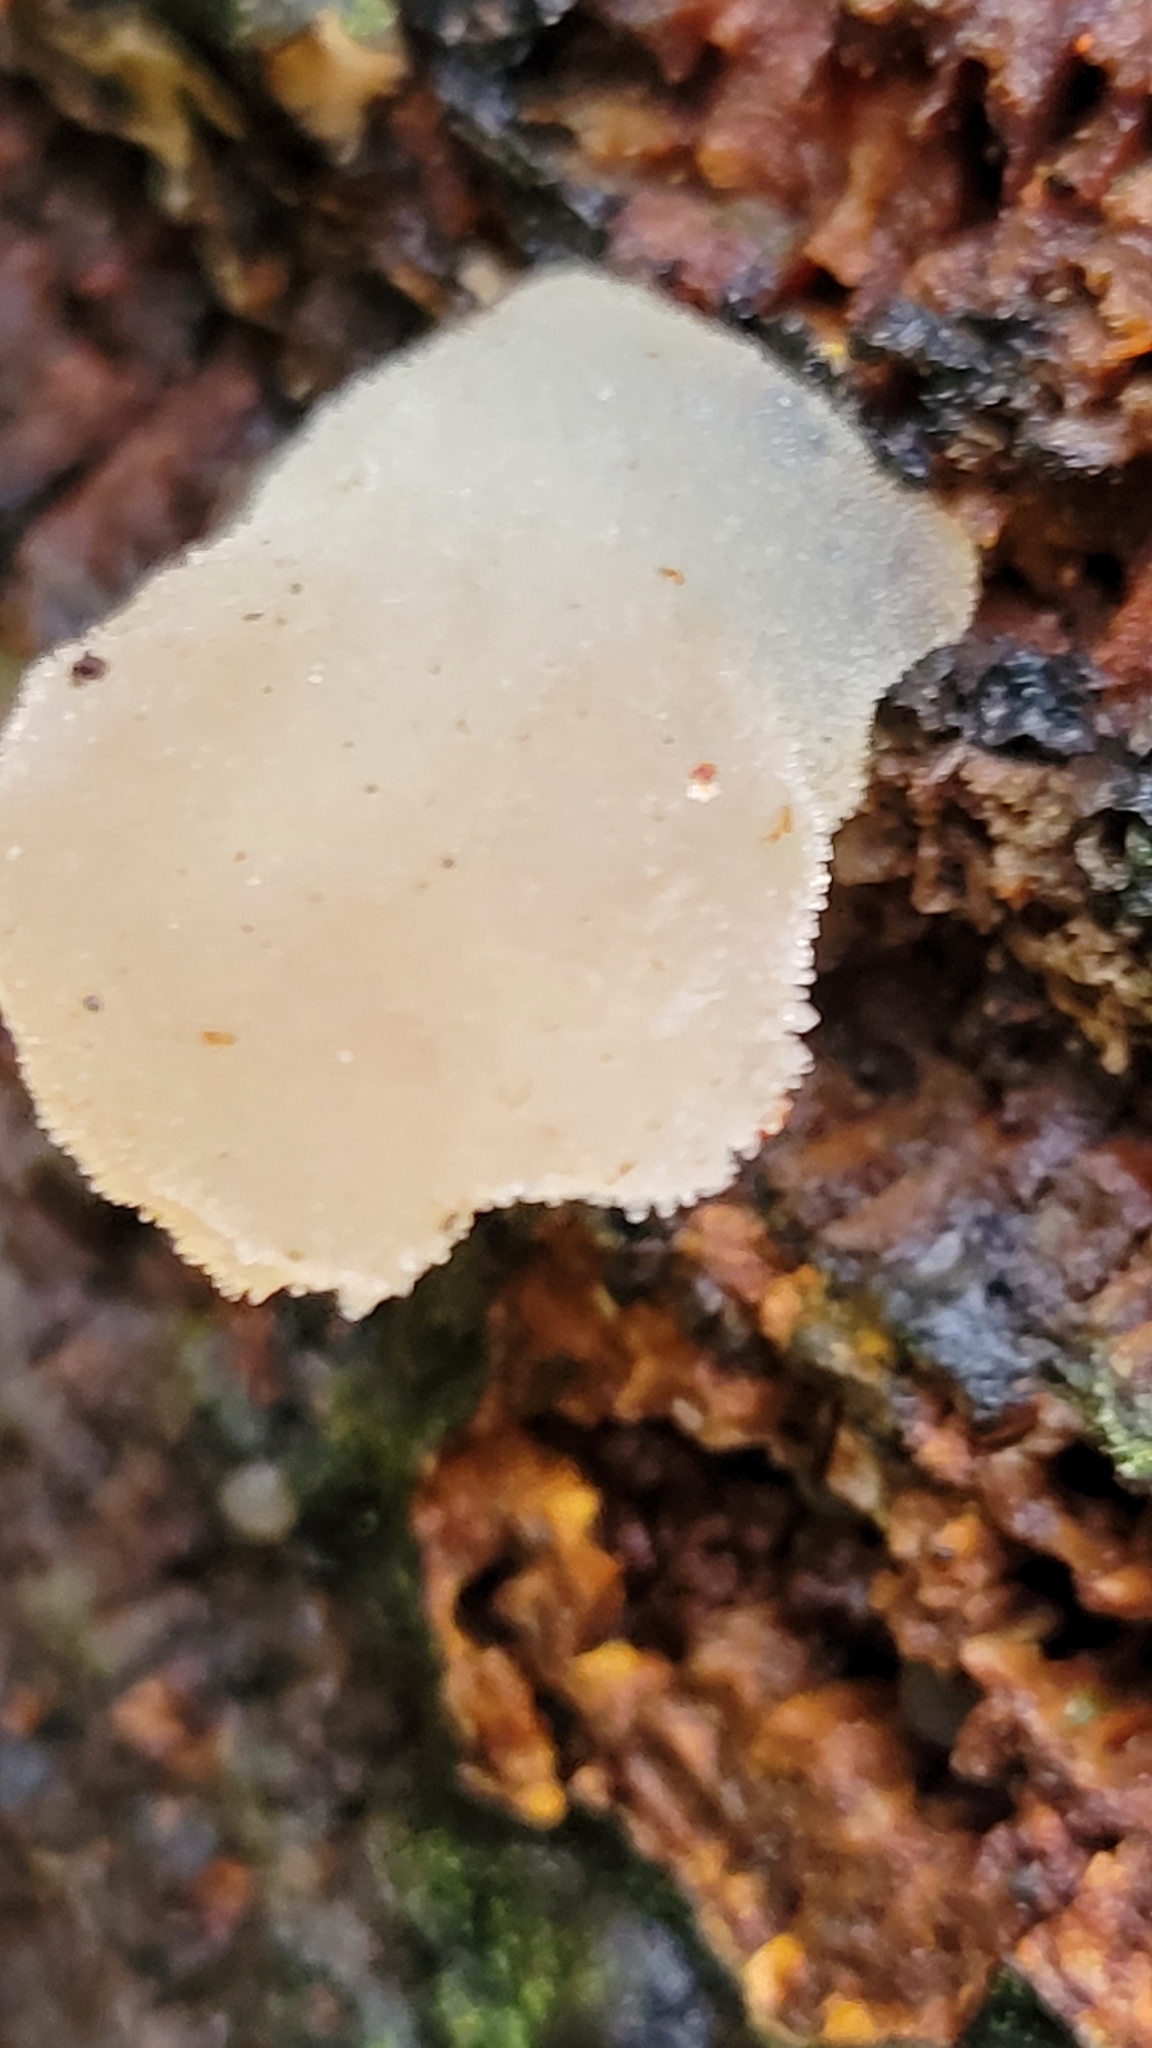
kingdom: Fungi
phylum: Basidiomycota
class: Agaricomycetes
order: Auriculariales
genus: Pseudohydnum
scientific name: Pseudohydnum gelatinosum
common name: Jelly tongue
